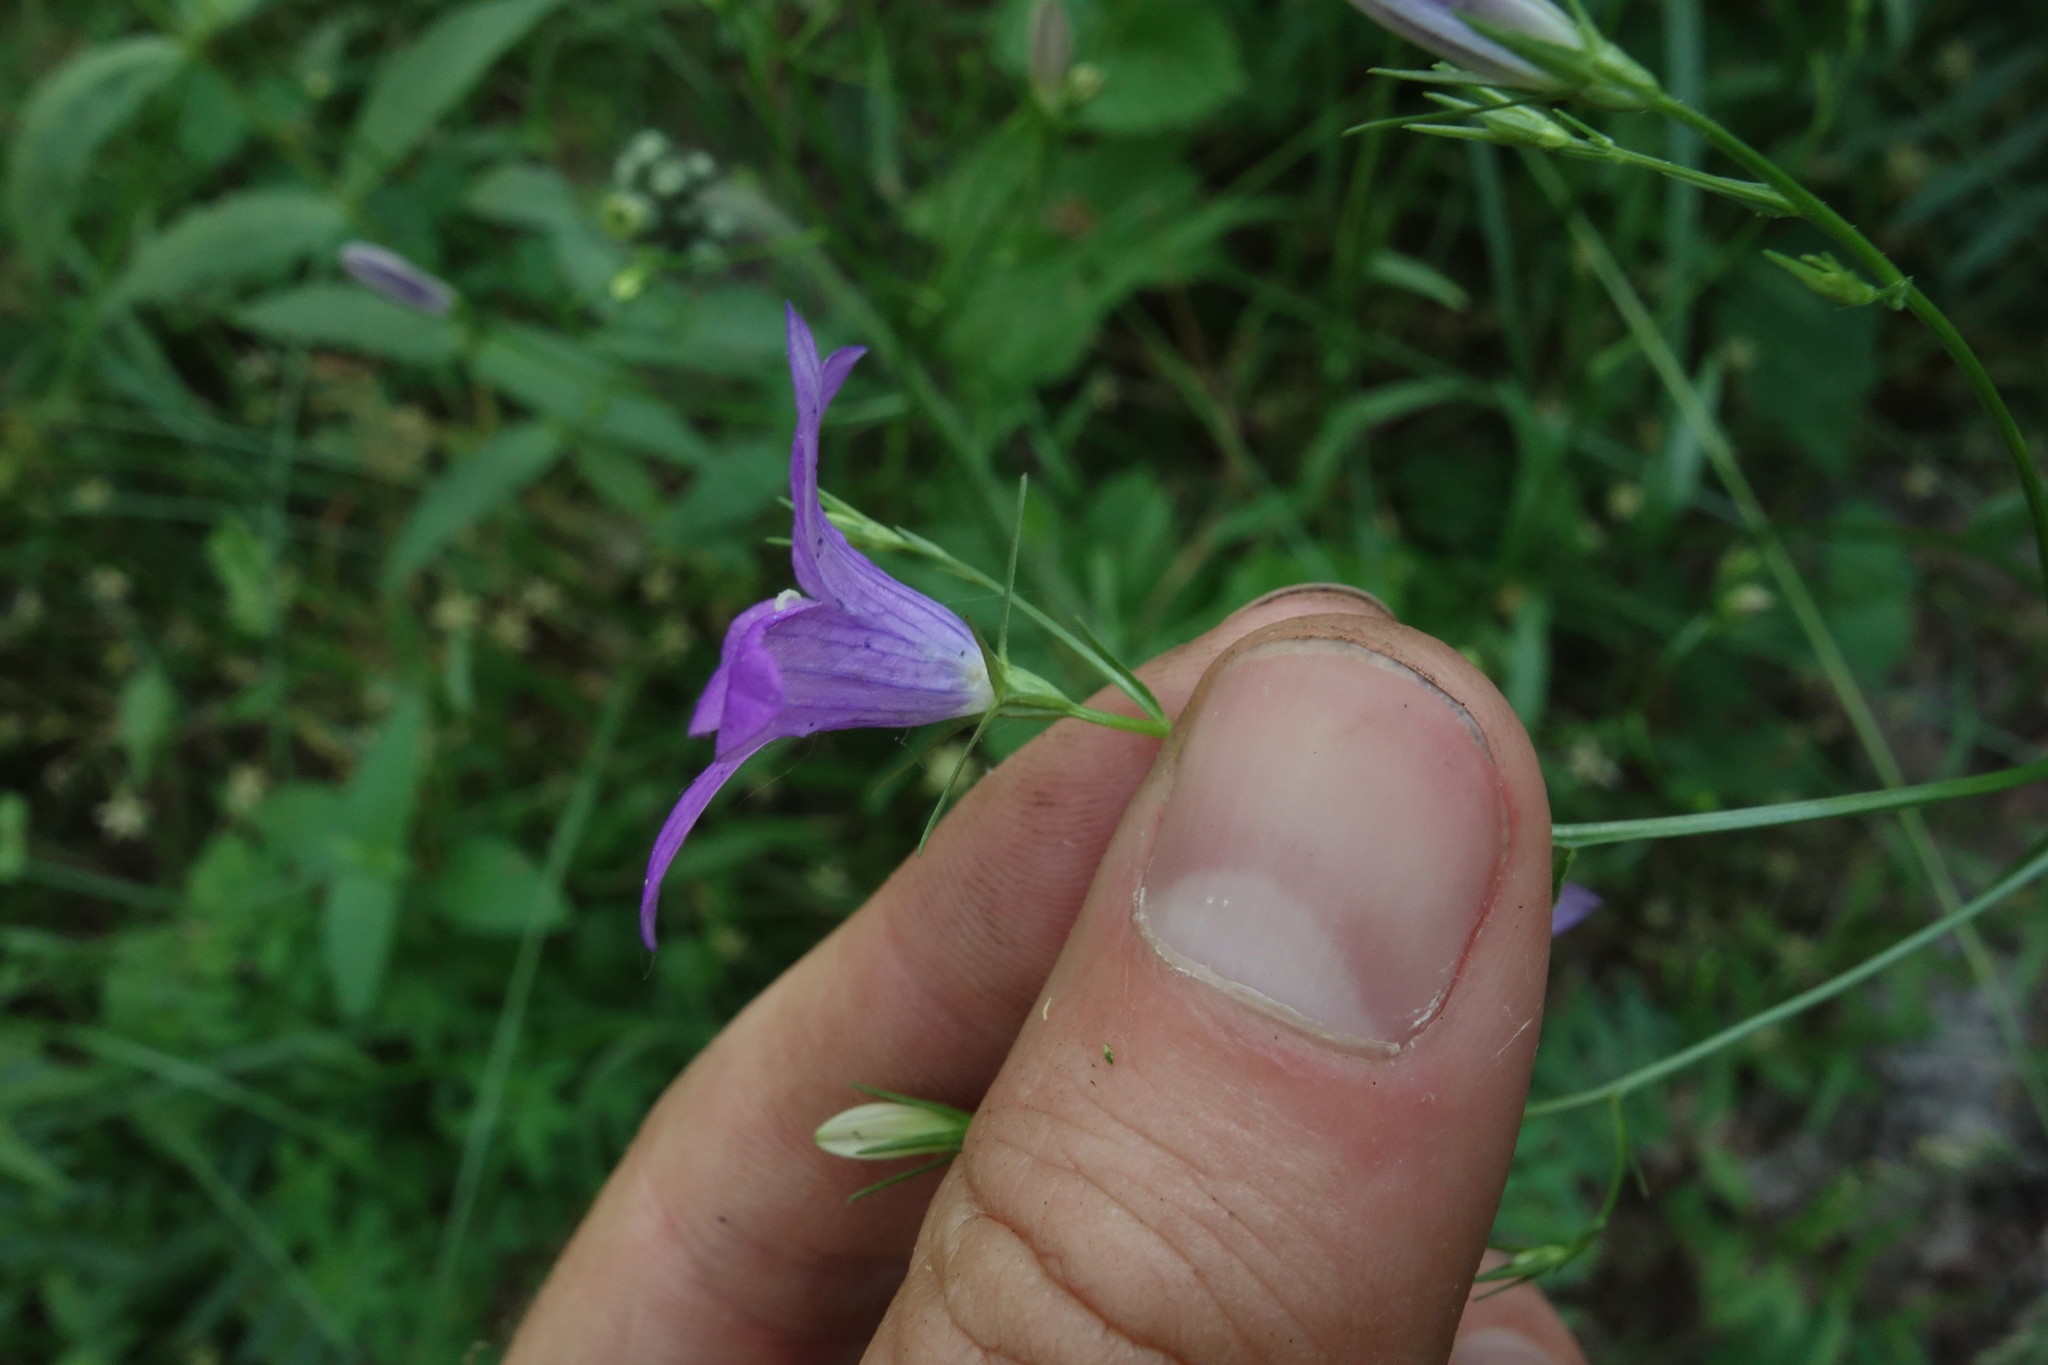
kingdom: Plantae
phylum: Tracheophyta
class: Magnoliopsida
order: Asterales
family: Campanulaceae
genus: Campanula
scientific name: Campanula patula
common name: Spreading bellflower
